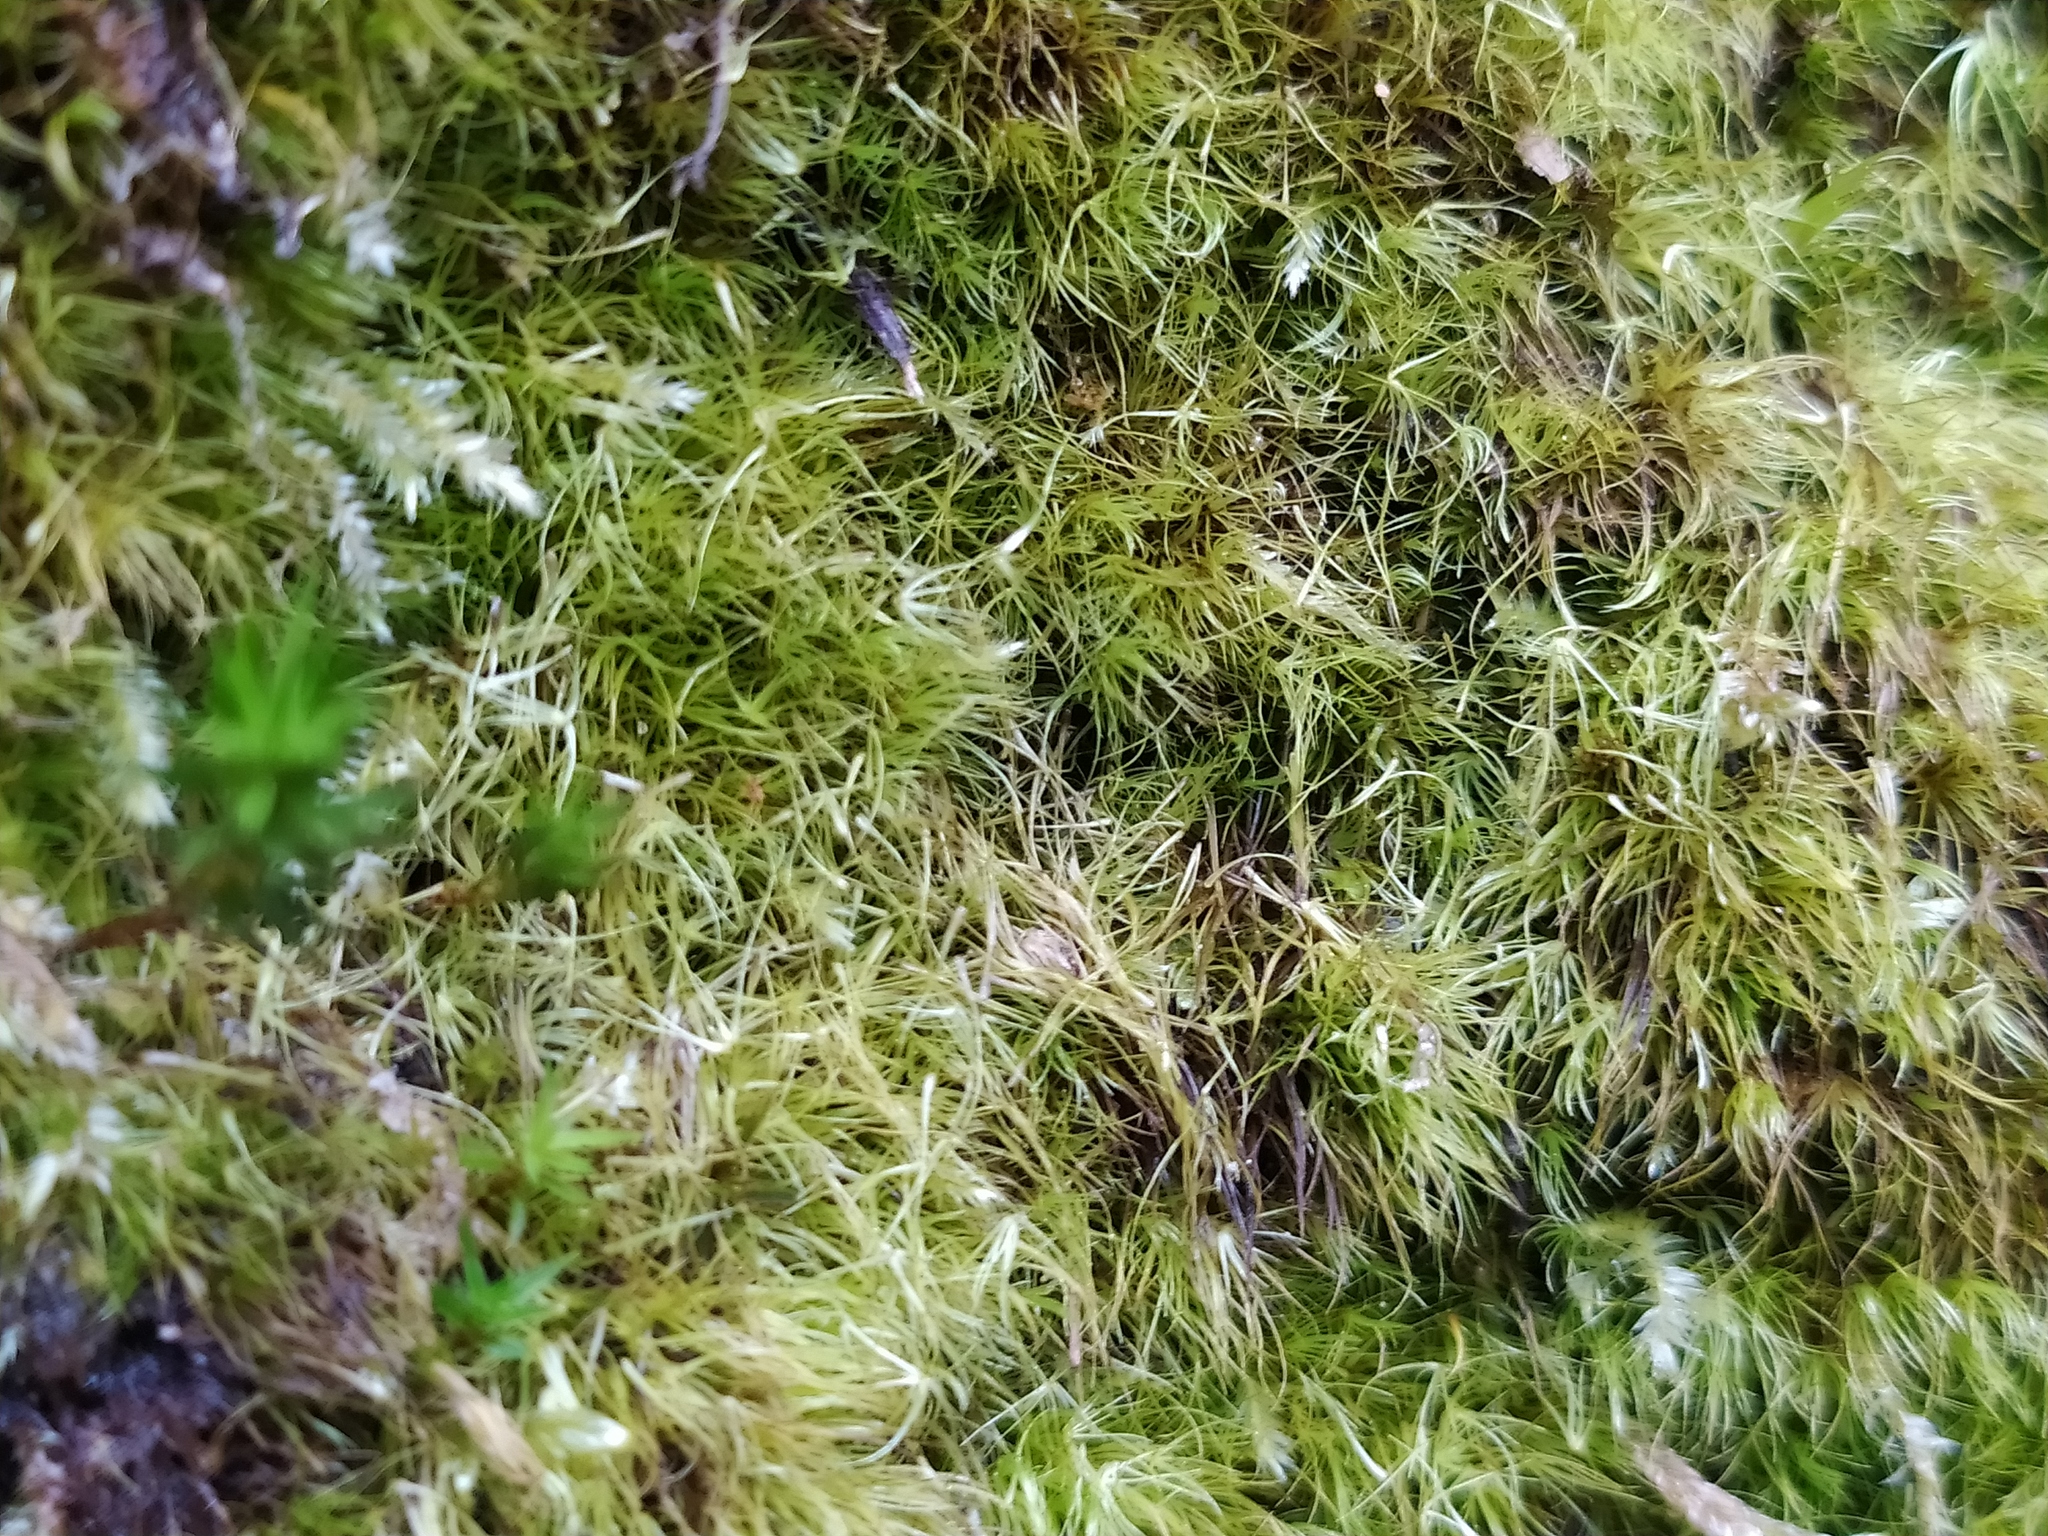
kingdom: Plantae
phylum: Bryophyta
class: Bryopsida
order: Dicranales
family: Leucobryaceae
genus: Dicranodontium
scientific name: Dicranodontium denudatum
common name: Beaked bow moss
